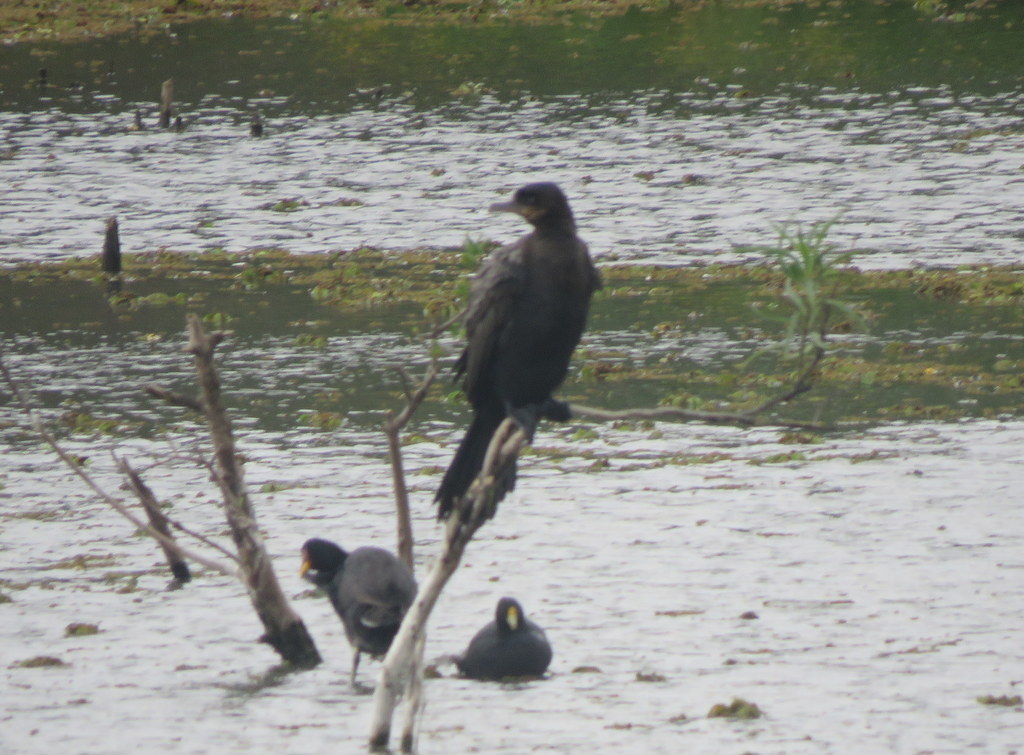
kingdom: Animalia
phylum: Chordata
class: Aves
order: Suliformes
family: Phalacrocoracidae
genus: Phalacrocorax
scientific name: Phalacrocorax brasilianus
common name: Neotropic cormorant
